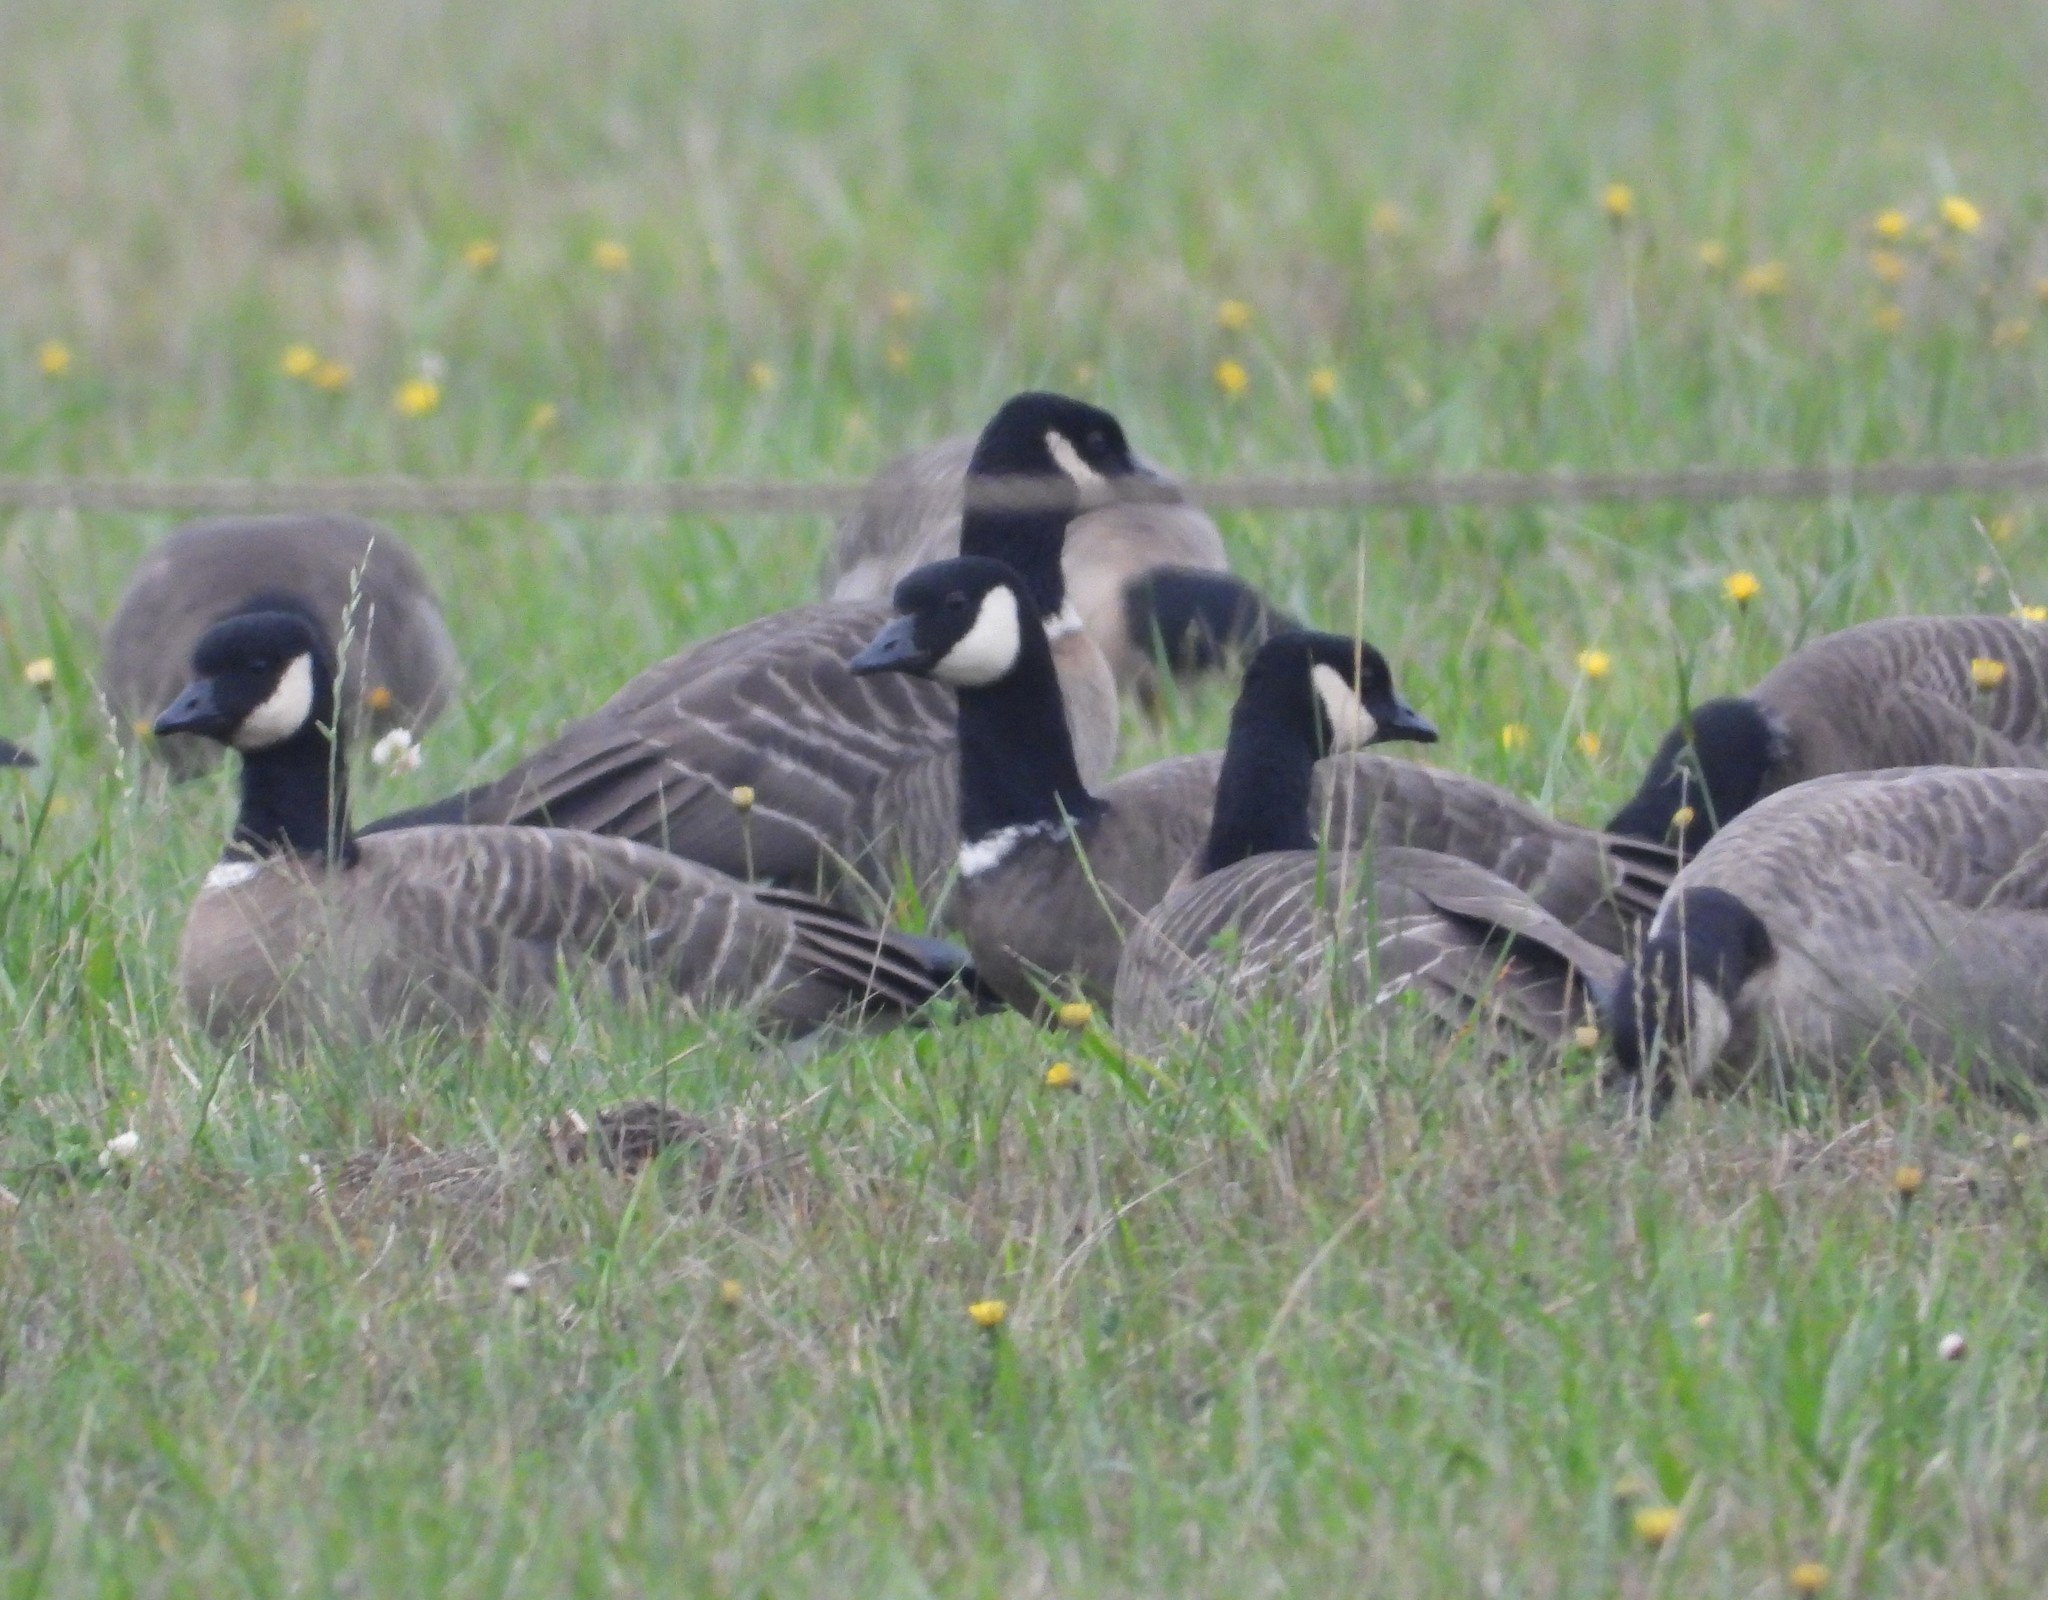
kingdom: Animalia
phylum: Chordata
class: Aves
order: Anseriformes
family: Anatidae
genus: Branta
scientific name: Branta hutchinsii
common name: Cackling goose
